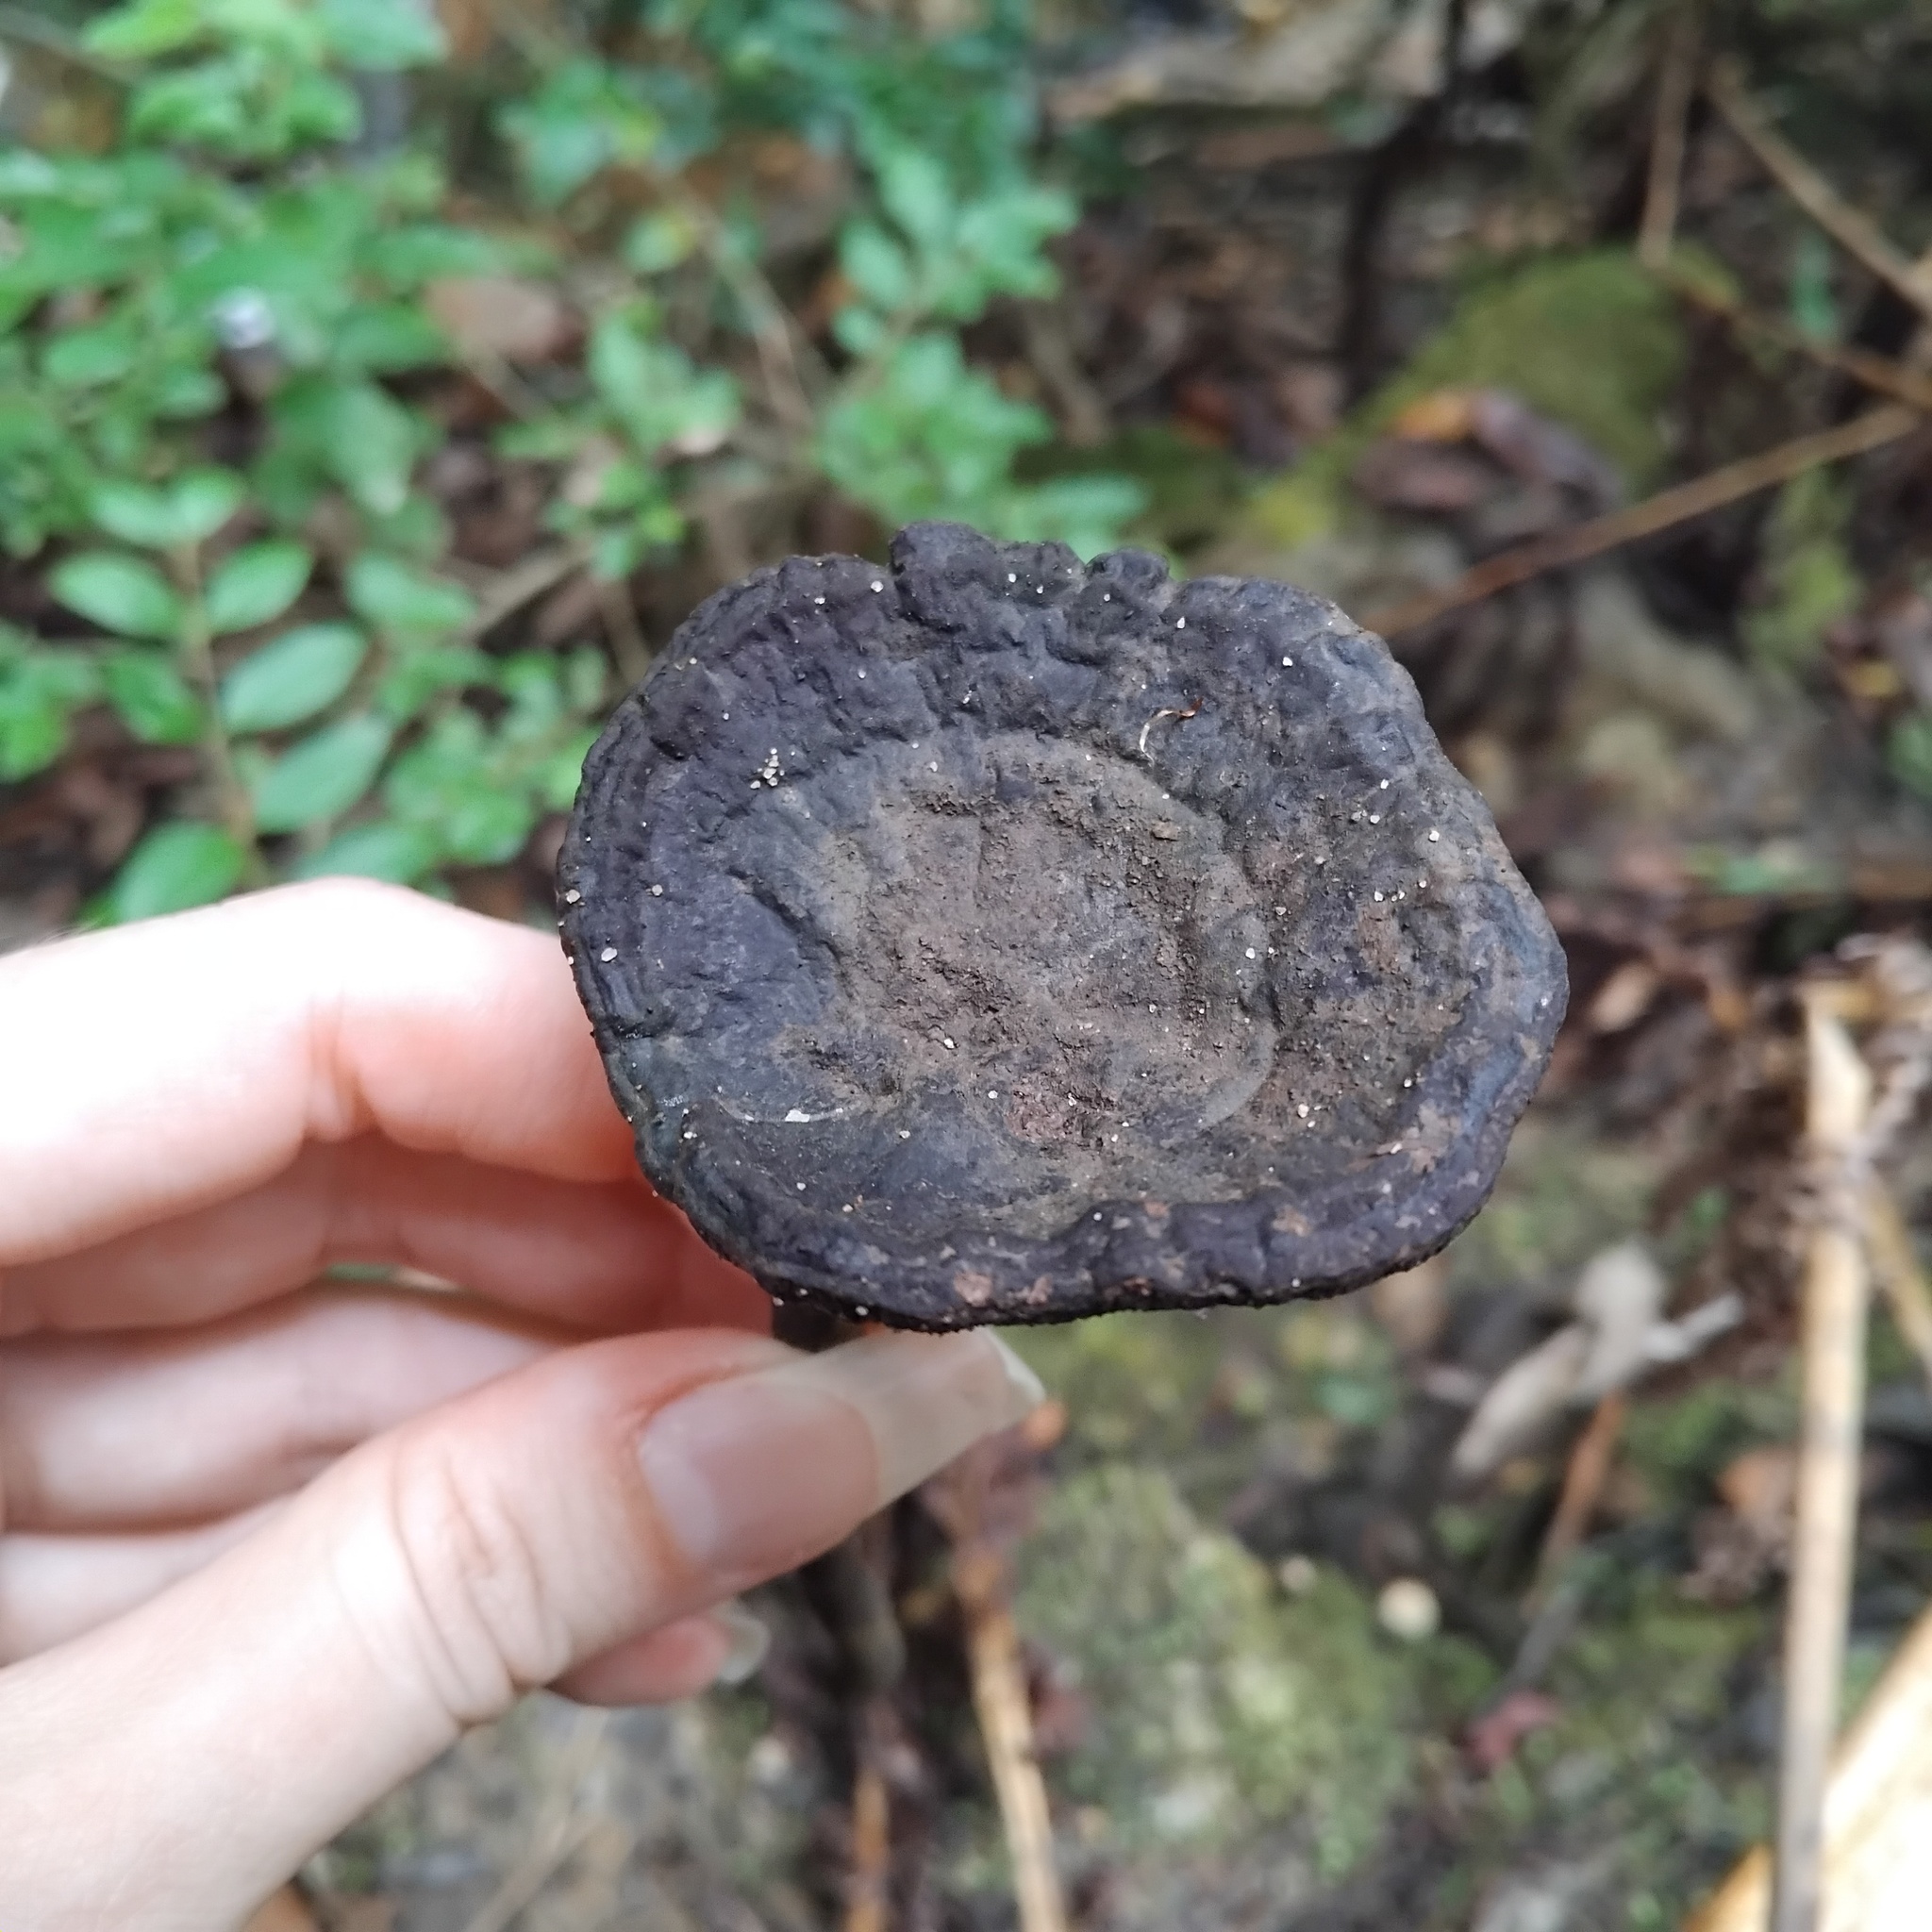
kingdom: Fungi
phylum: Basidiomycota
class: Agaricomycetes
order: Polyporales
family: Ganodermataceae
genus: Sanguinoderma
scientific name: Sanguinoderma rude
